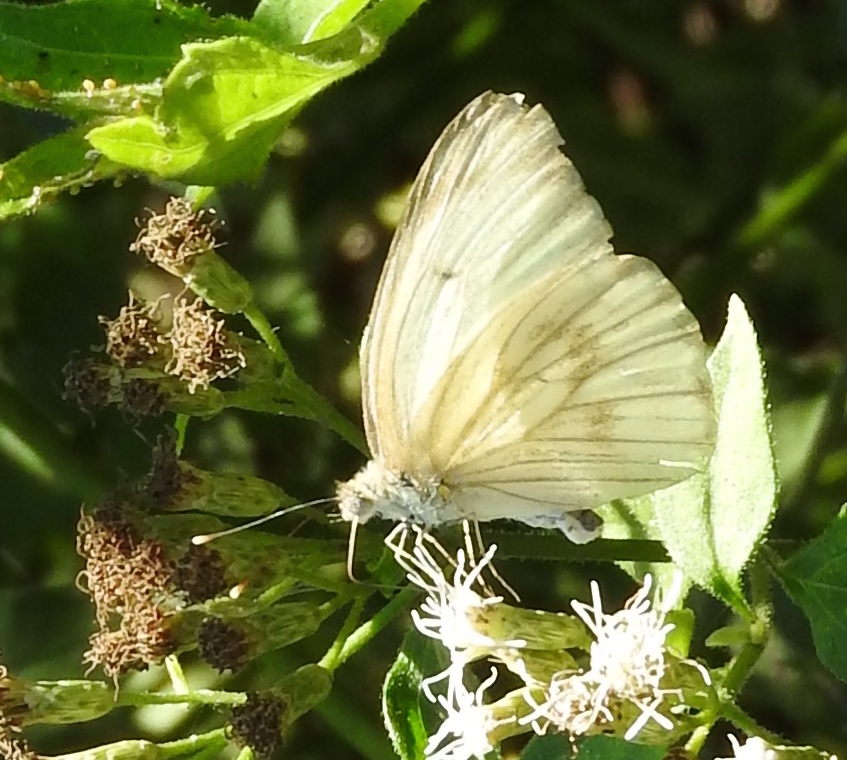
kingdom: Animalia
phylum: Arthropoda
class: Insecta
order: Lepidoptera
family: Pieridae
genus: Ascia
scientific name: Ascia monuste
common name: Great southern white
